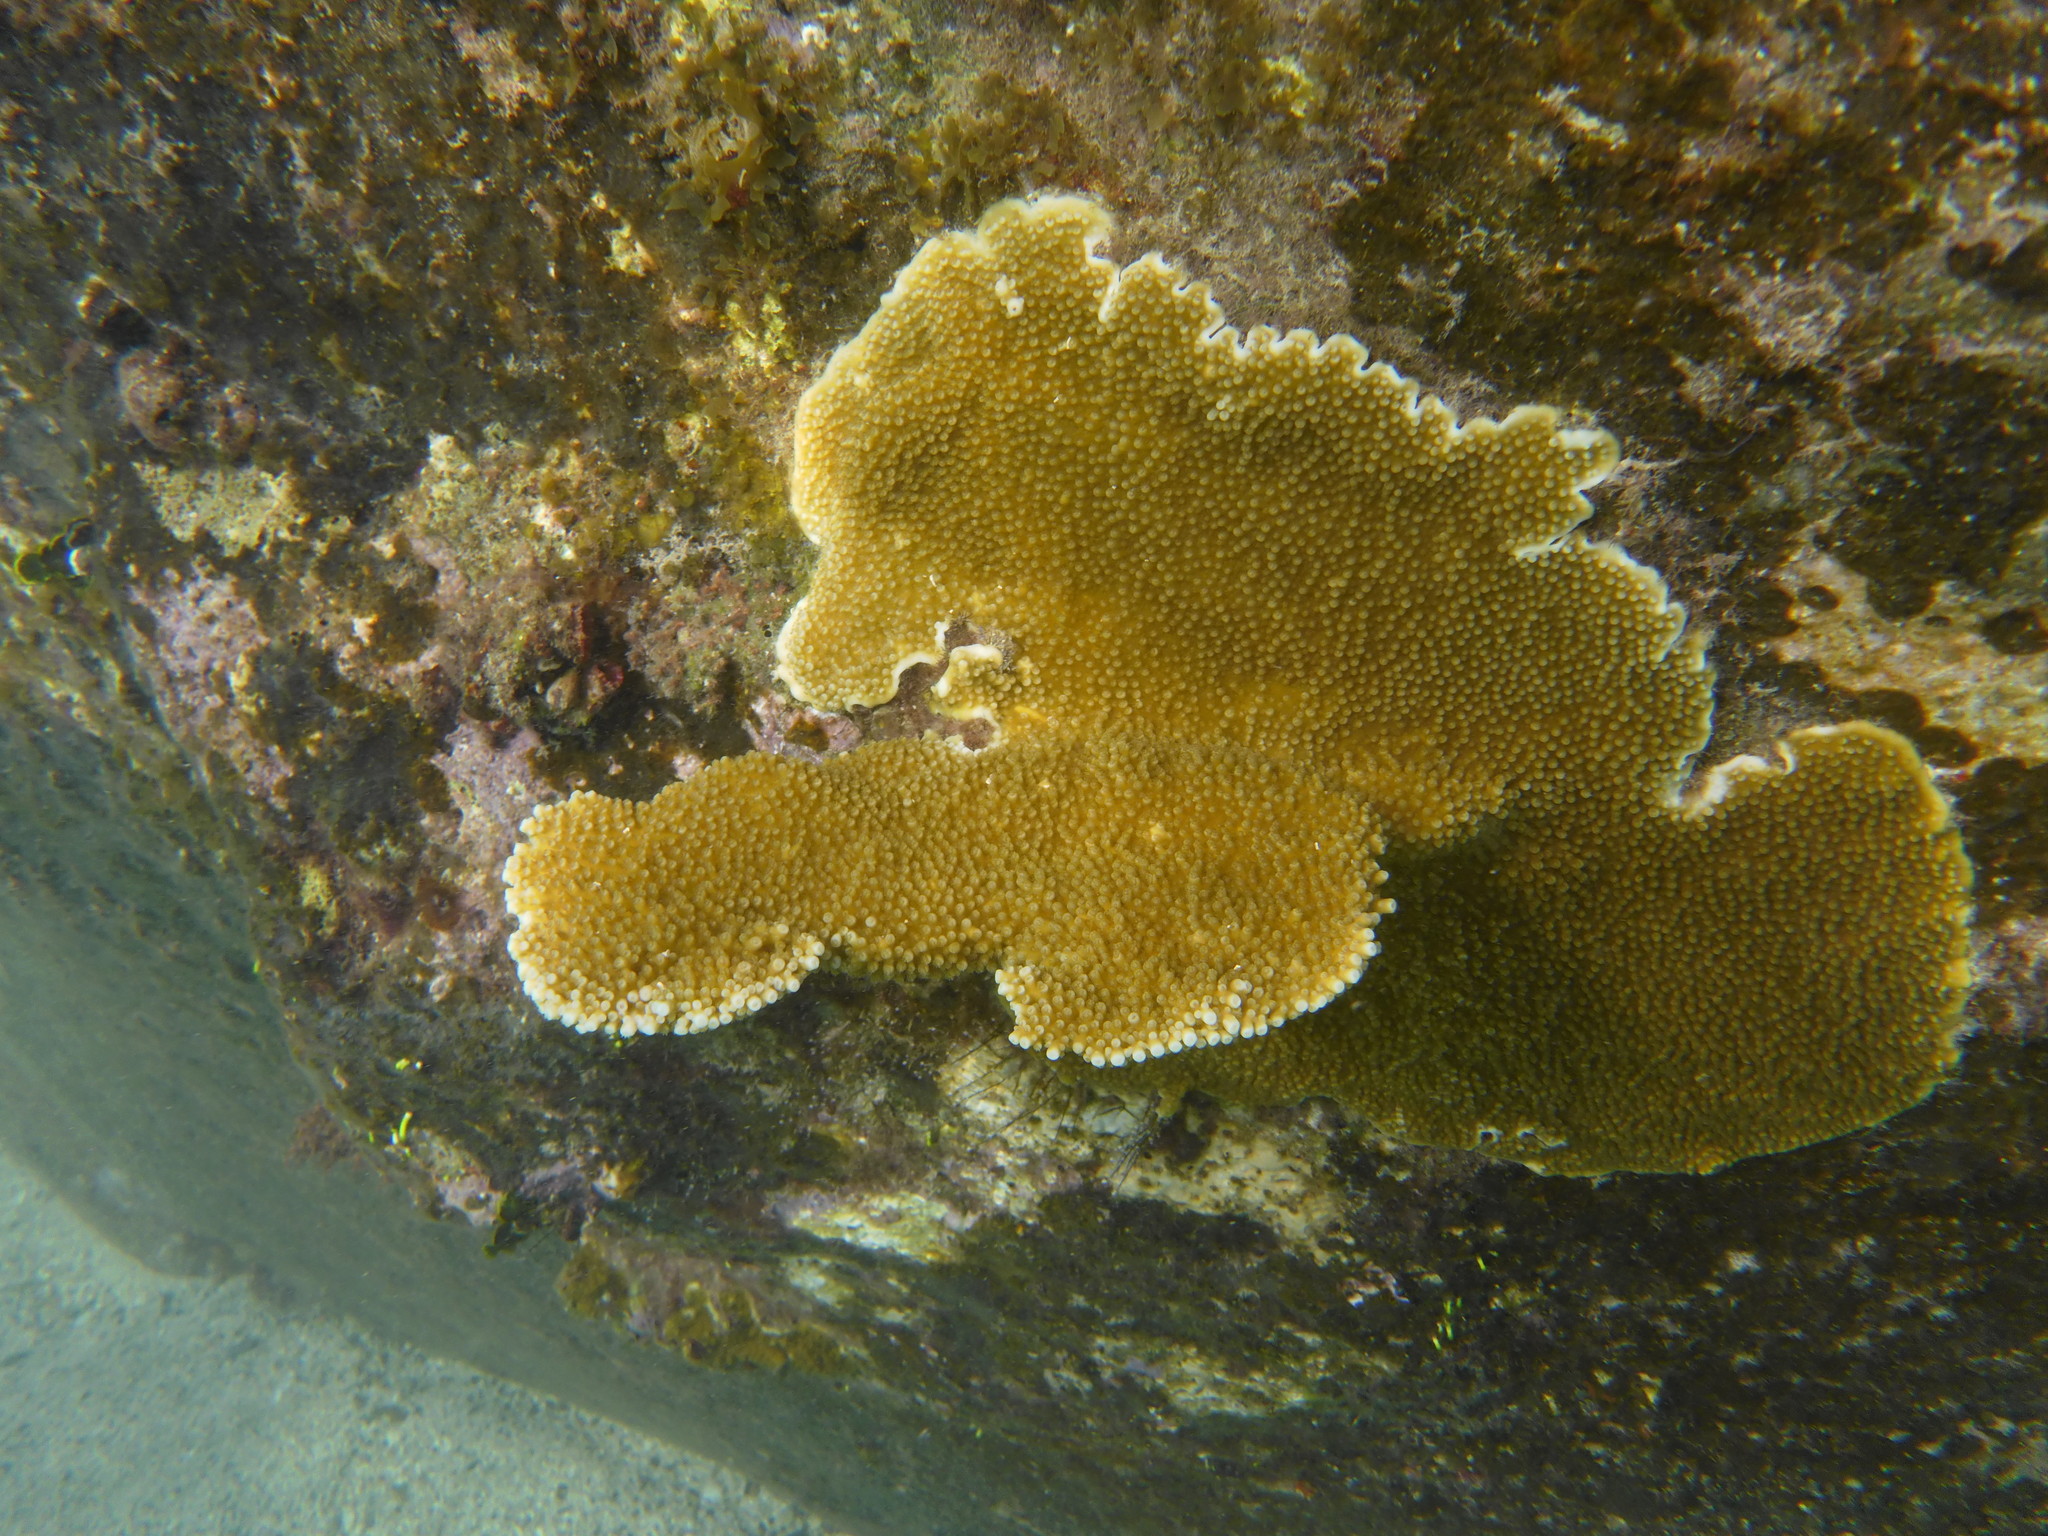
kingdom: Animalia
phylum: Cnidaria
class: Anthozoa
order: Scleractinia
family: Acroporidae
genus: Acropora
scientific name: Acropora palmata
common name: Elkhorn coral
